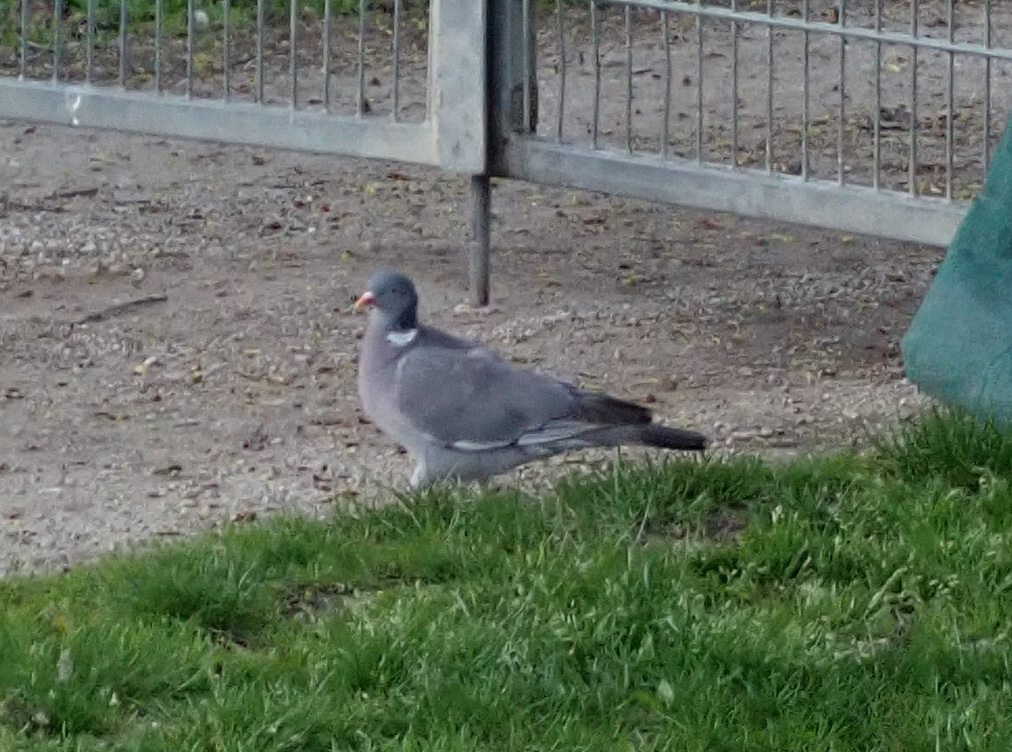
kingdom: Animalia
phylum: Chordata
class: Aves
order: Columbiformes
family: Columbidae
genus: Columba
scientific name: Columba palumbus
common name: Common wood pigeon
